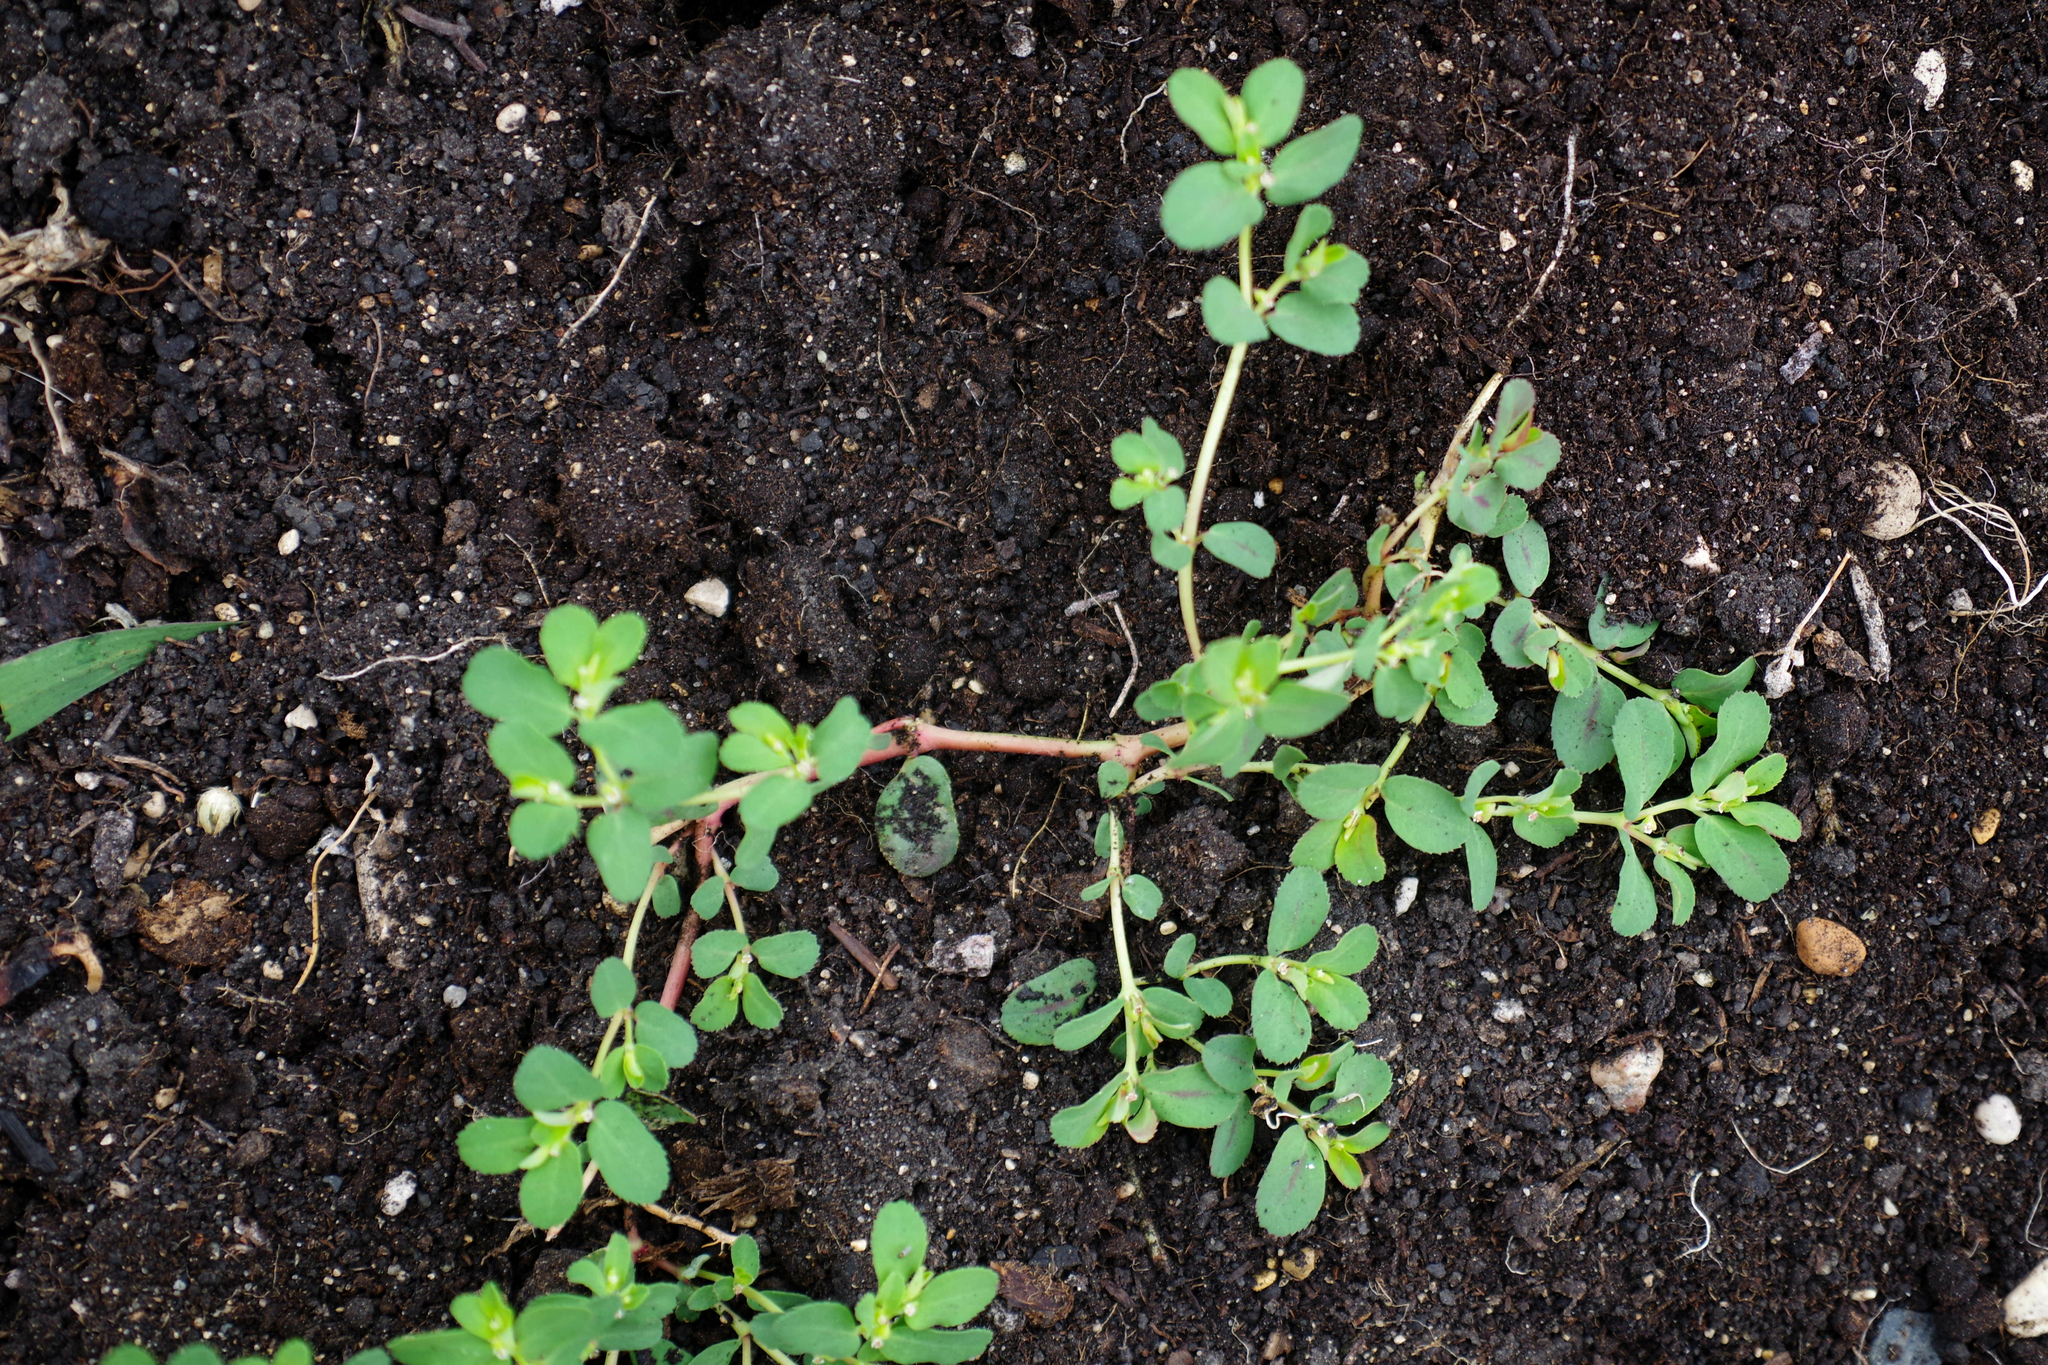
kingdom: Plantae
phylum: Tracheophyta
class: Magnoliopsida
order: Malpighiales
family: Euphorbiaceae
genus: Euphorbia
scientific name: Euphorbia serpillifolia
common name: Thyme-leaf spurge
